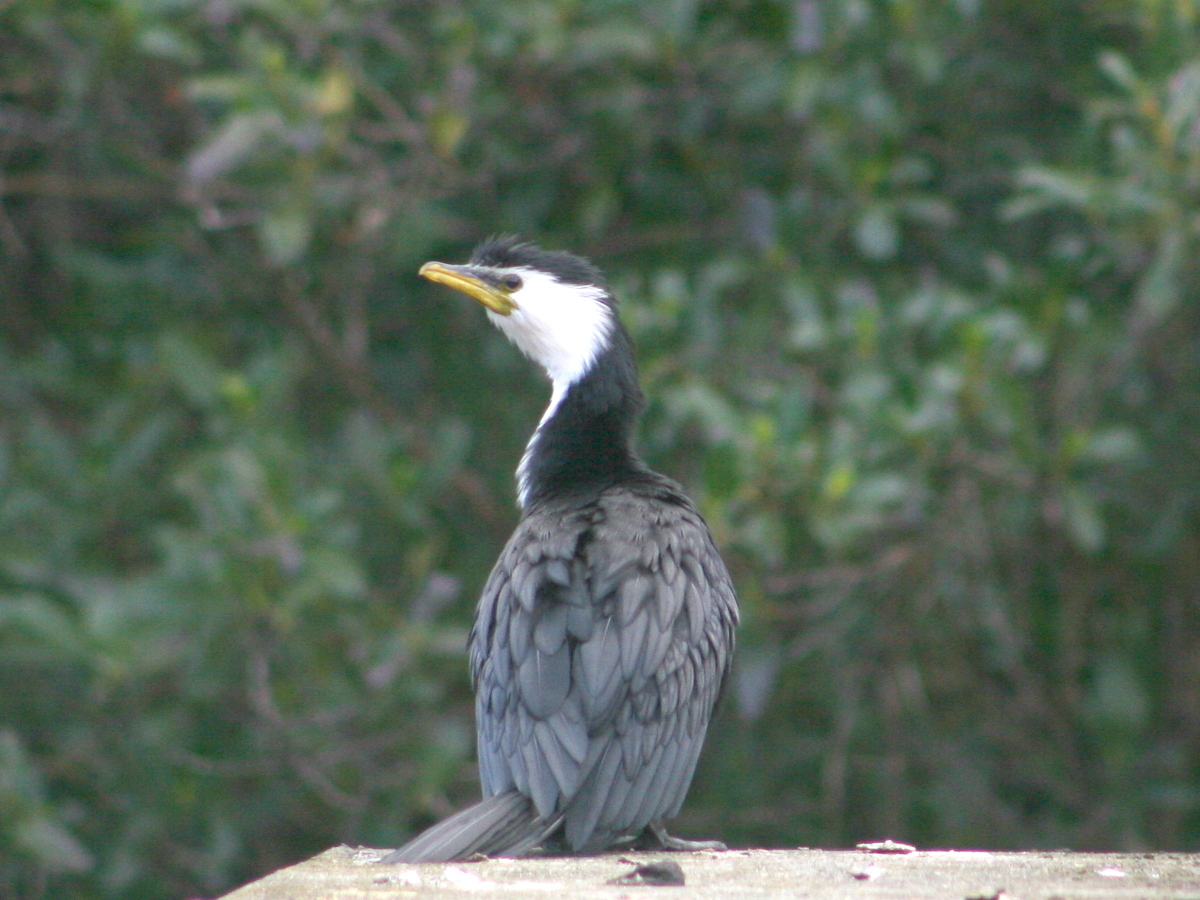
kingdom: Animalia
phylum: Chordata
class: Aves
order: Suliformes
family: Phalacrocoracidae
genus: Microcarbo
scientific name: Microcarbo melanoleucos
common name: Little pied cormorant
